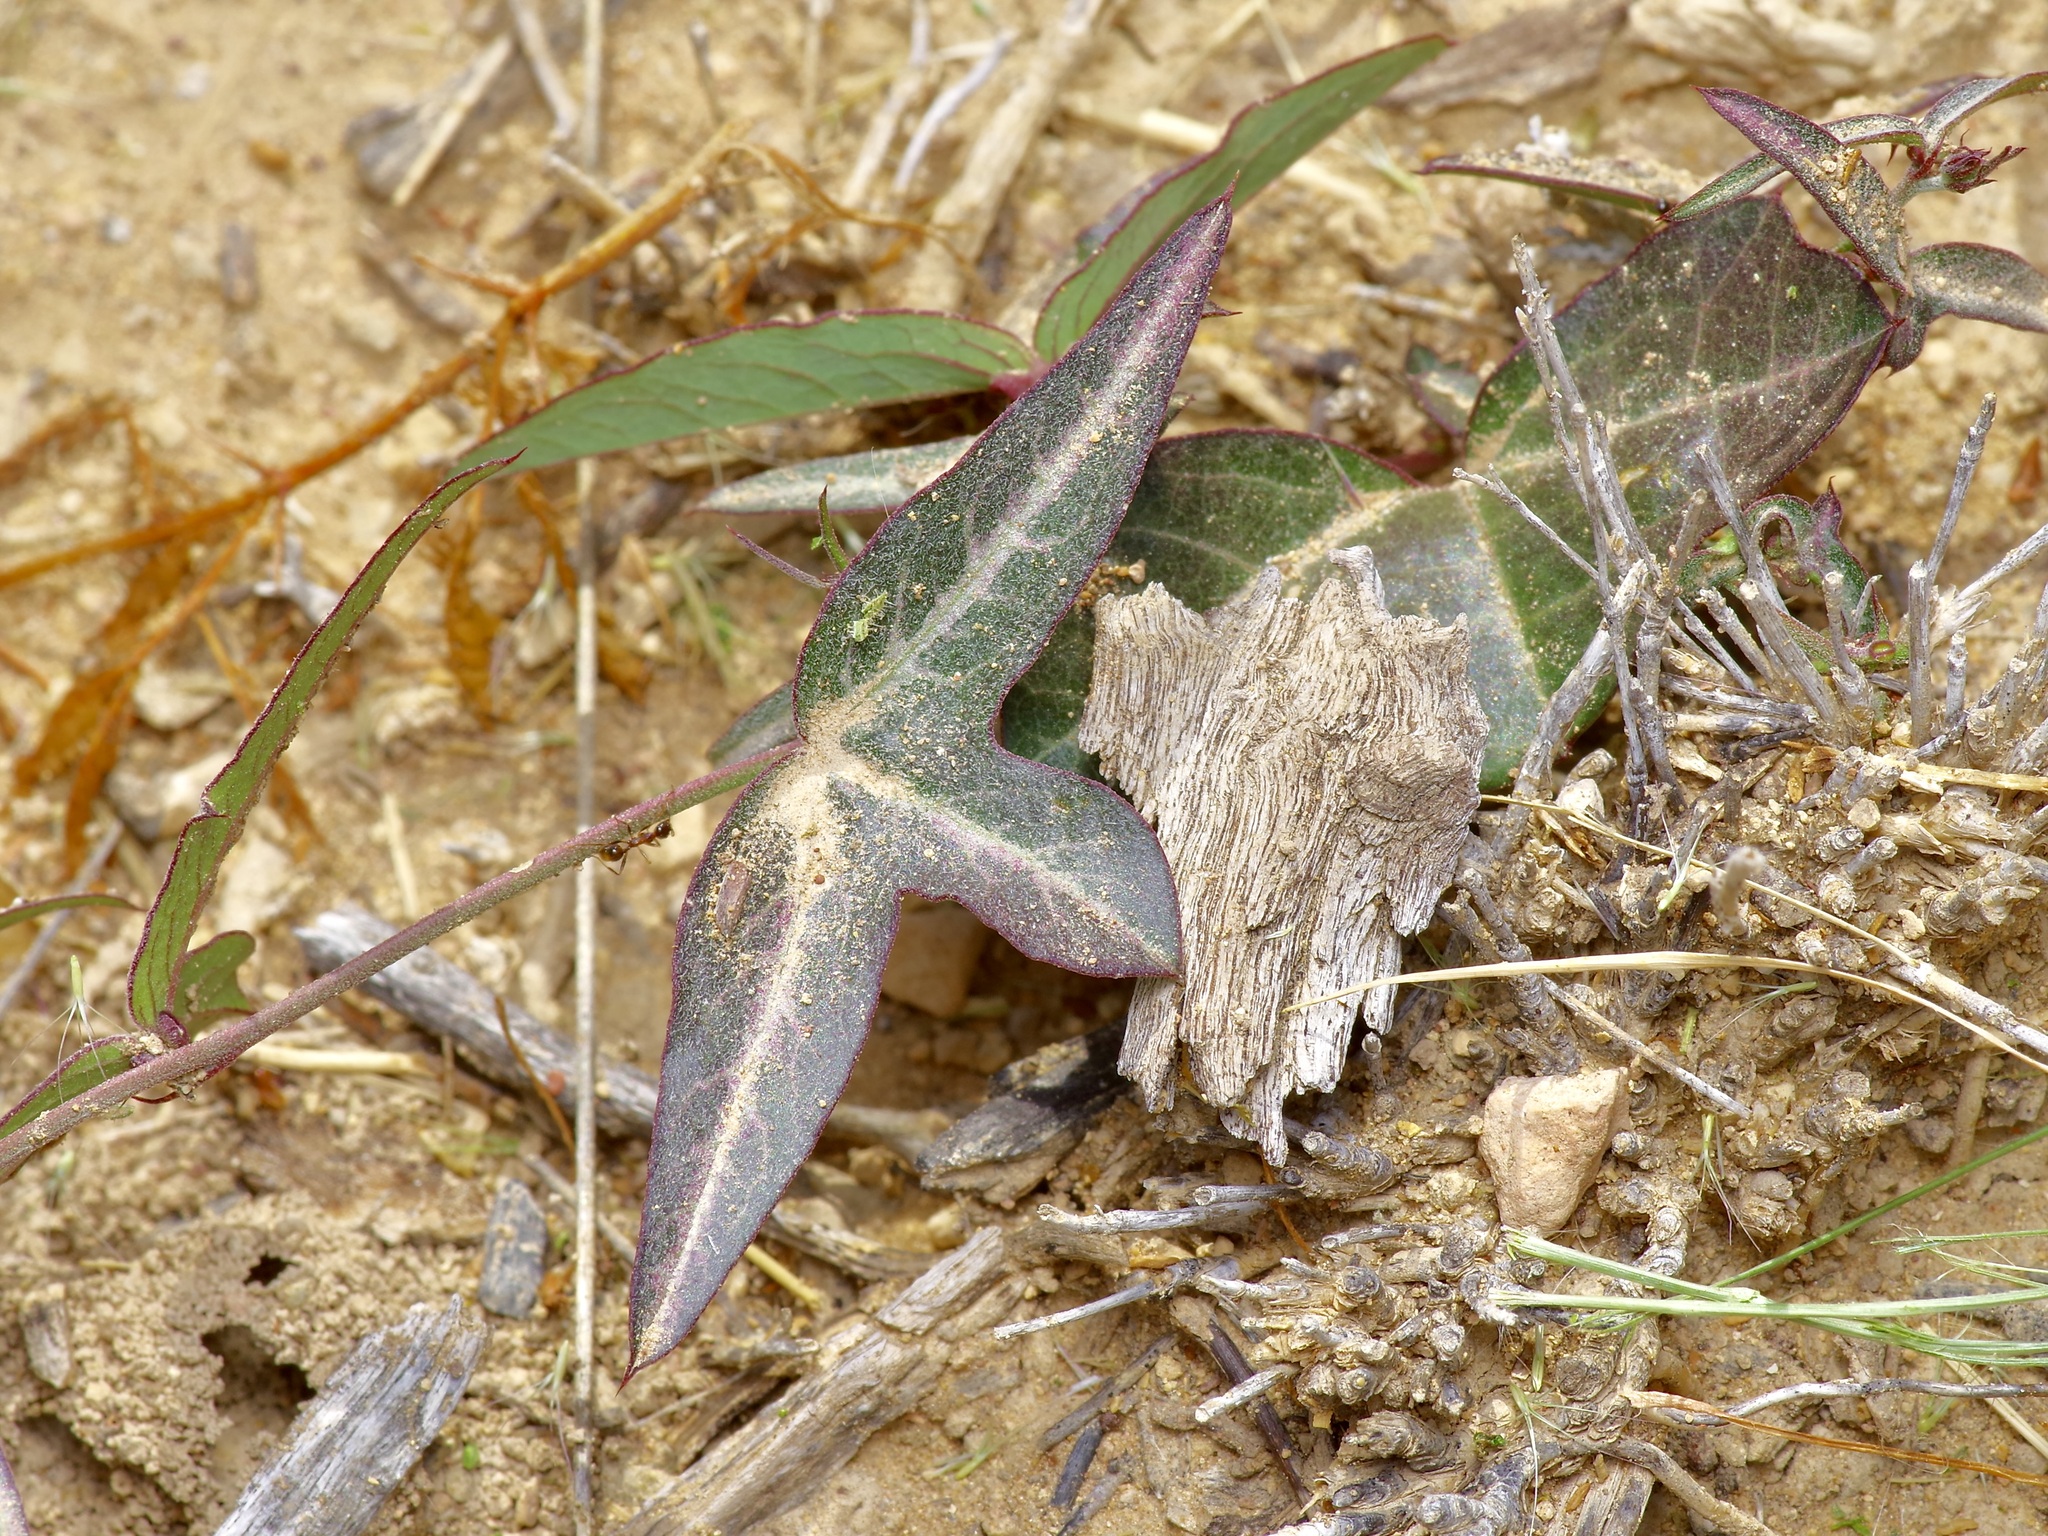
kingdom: Plantae
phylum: Tracheophyta
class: Magnoliopsida
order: Malpighiales
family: Passifloraceae
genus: Passiflora
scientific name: Passiflora tenuiloba
